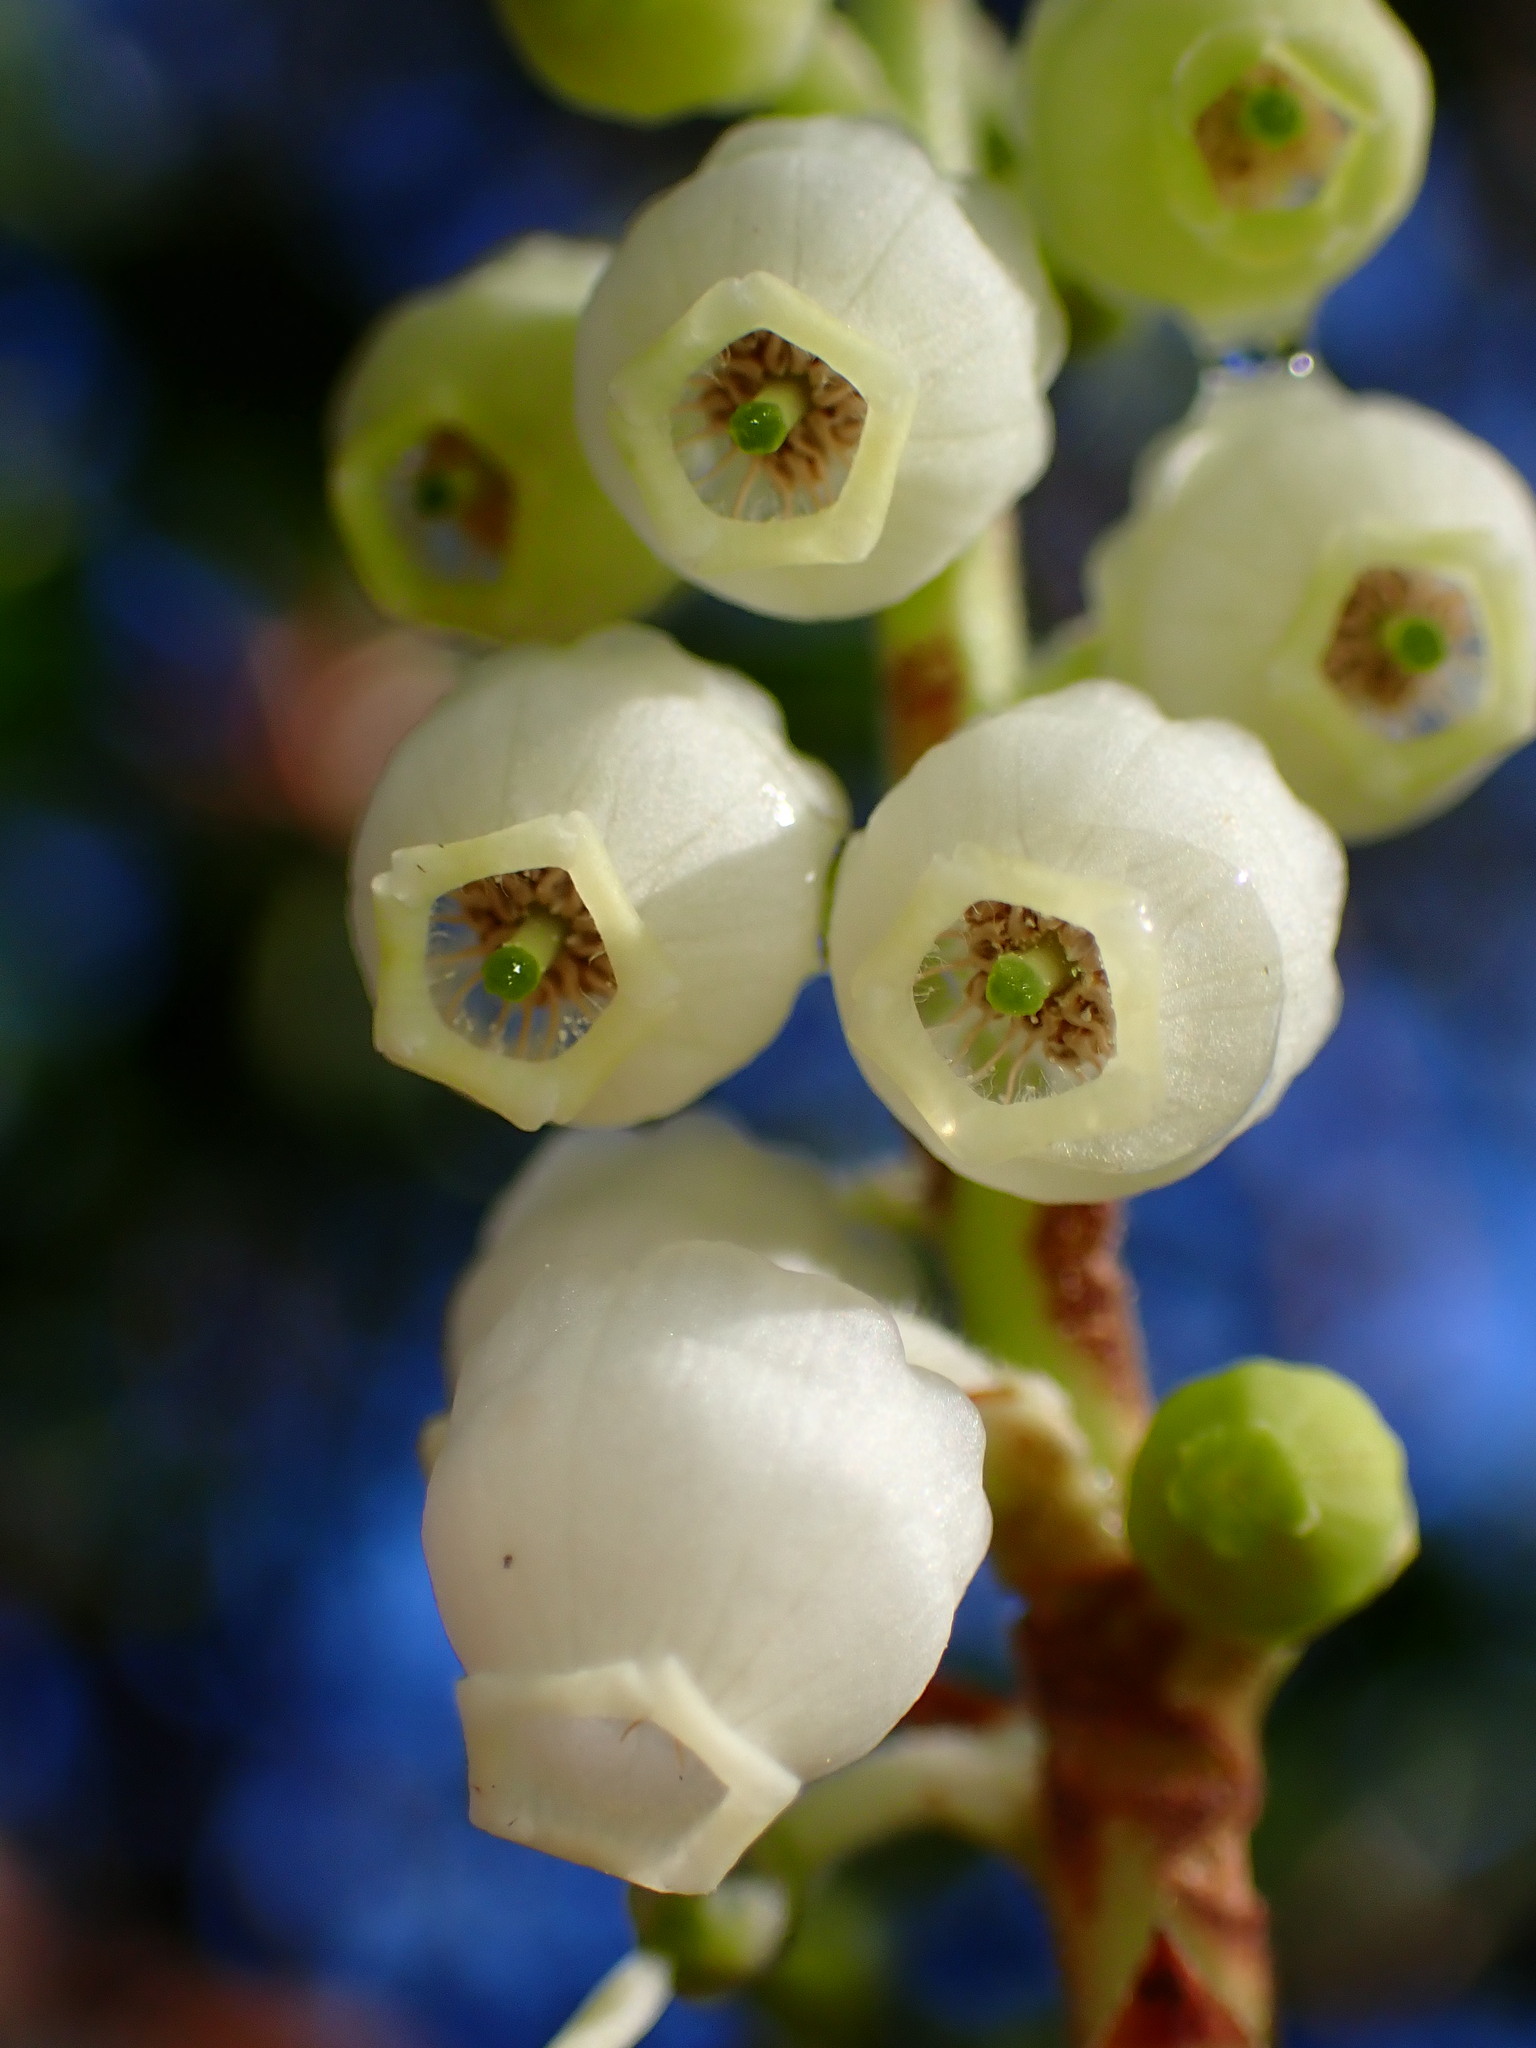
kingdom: Plantae
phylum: Tracheophyta
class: Magnoliopsida
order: Ericales
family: Ericaceae
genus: Arbutus
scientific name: Arbutus menziesii
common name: Pacific madrone
